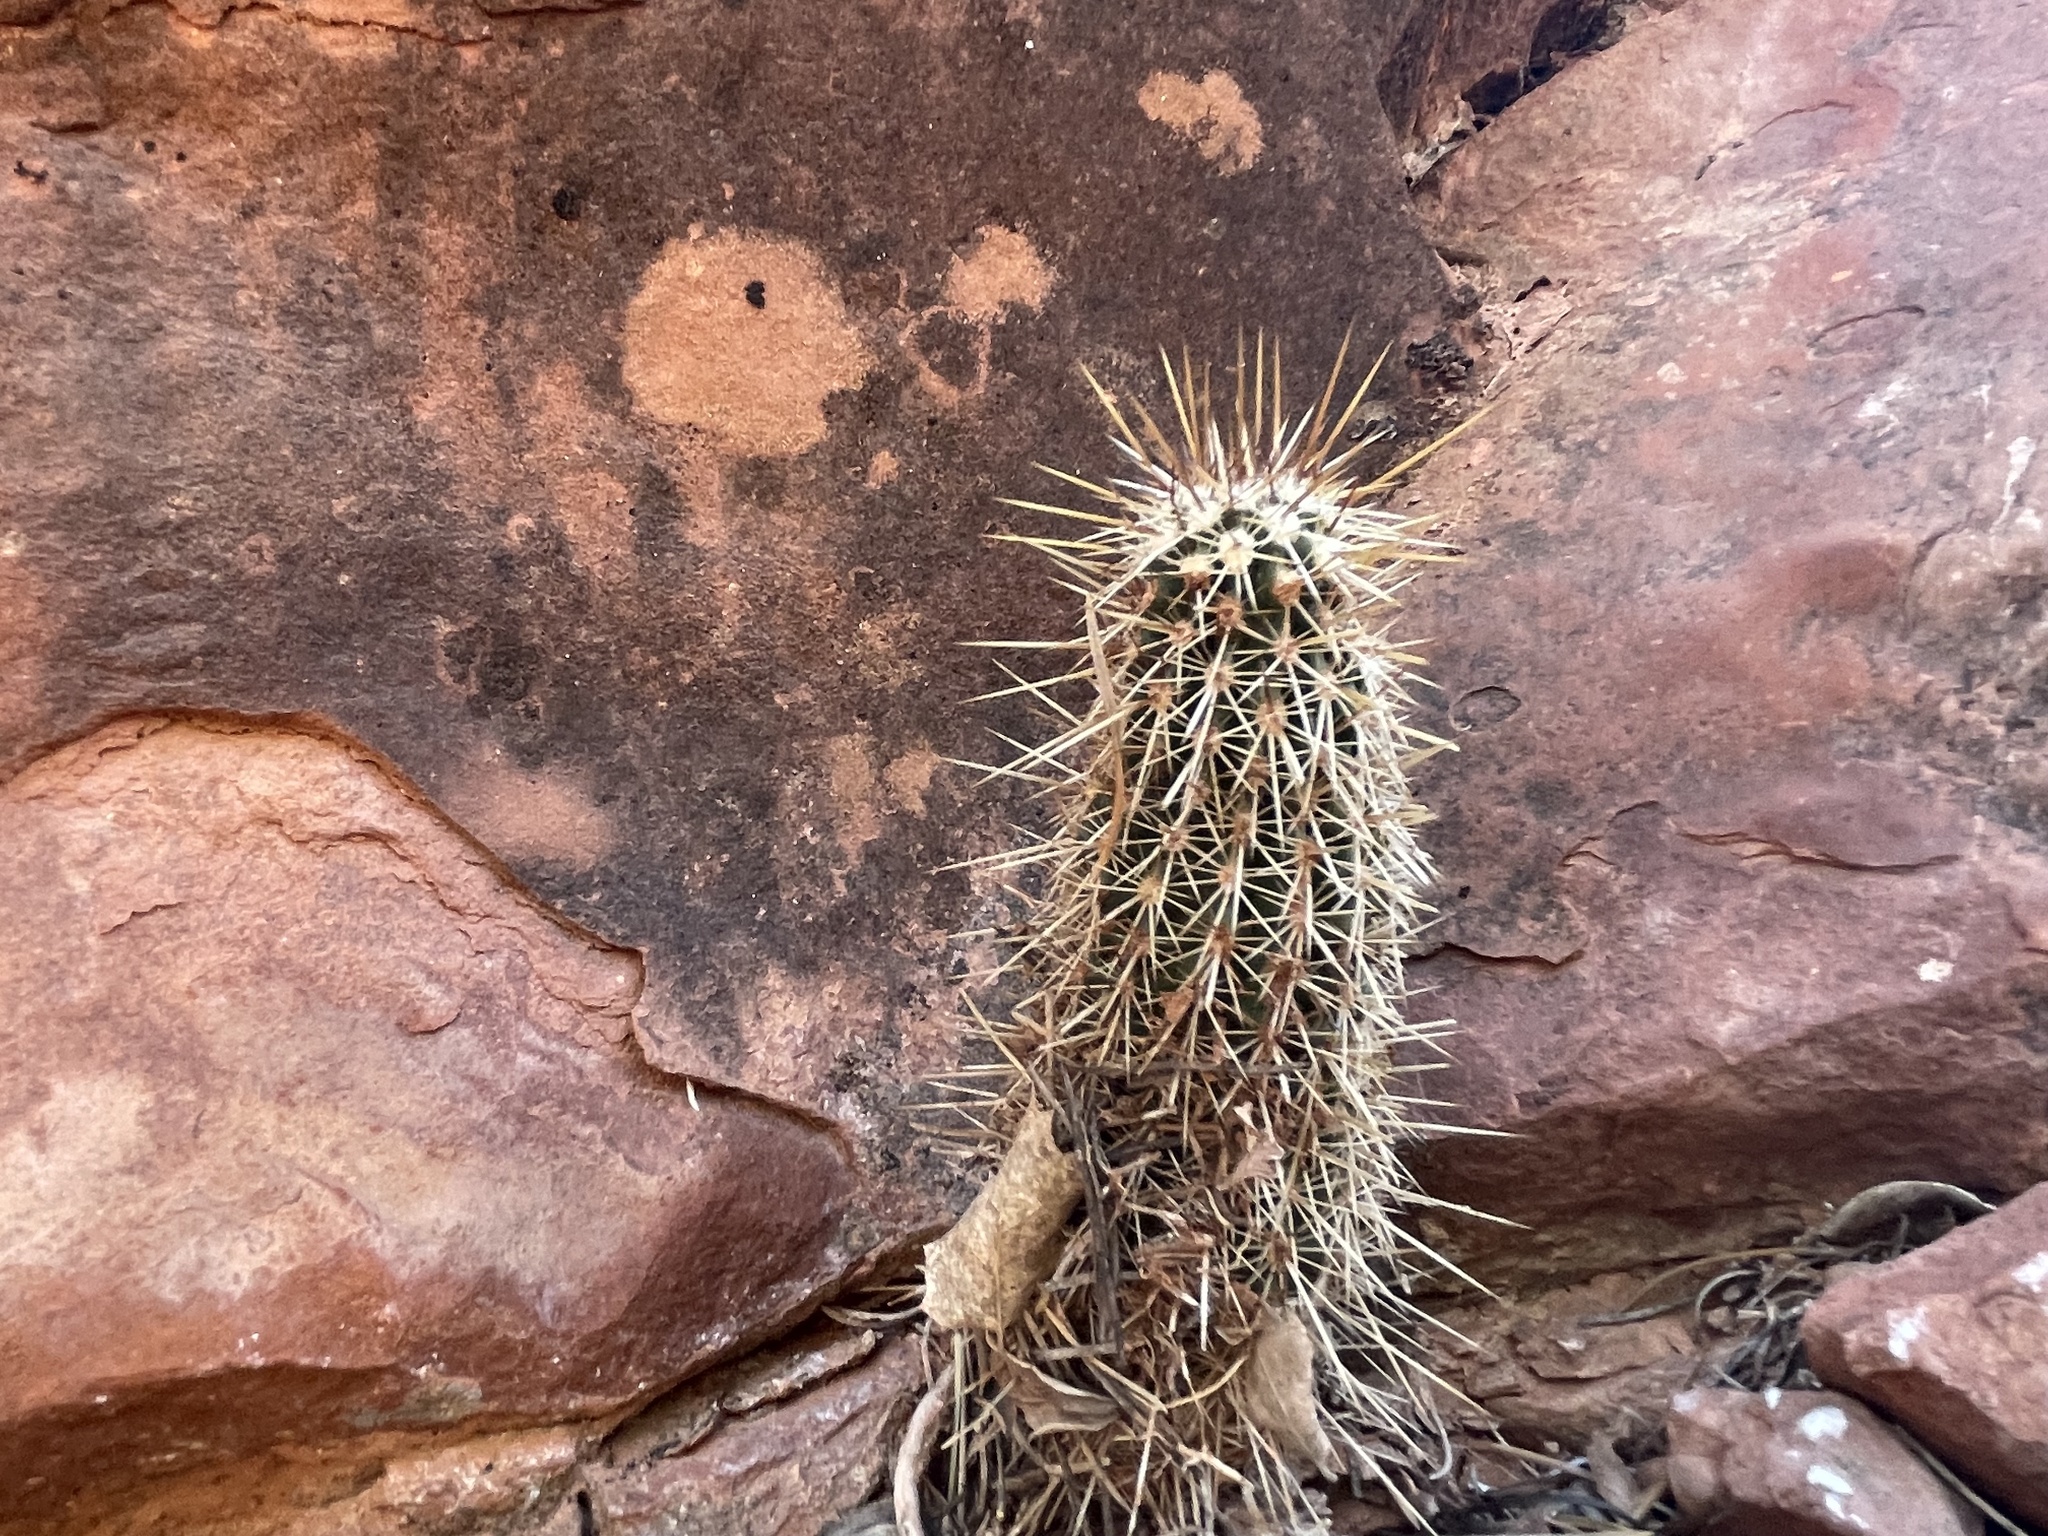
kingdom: Plantae
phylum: Tracheophyta
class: Magnoliopsida
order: Caryophyllales
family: Cactaceae
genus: Echinocereus
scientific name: Echinocereus fasciculatus
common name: Bundle hedgehog
